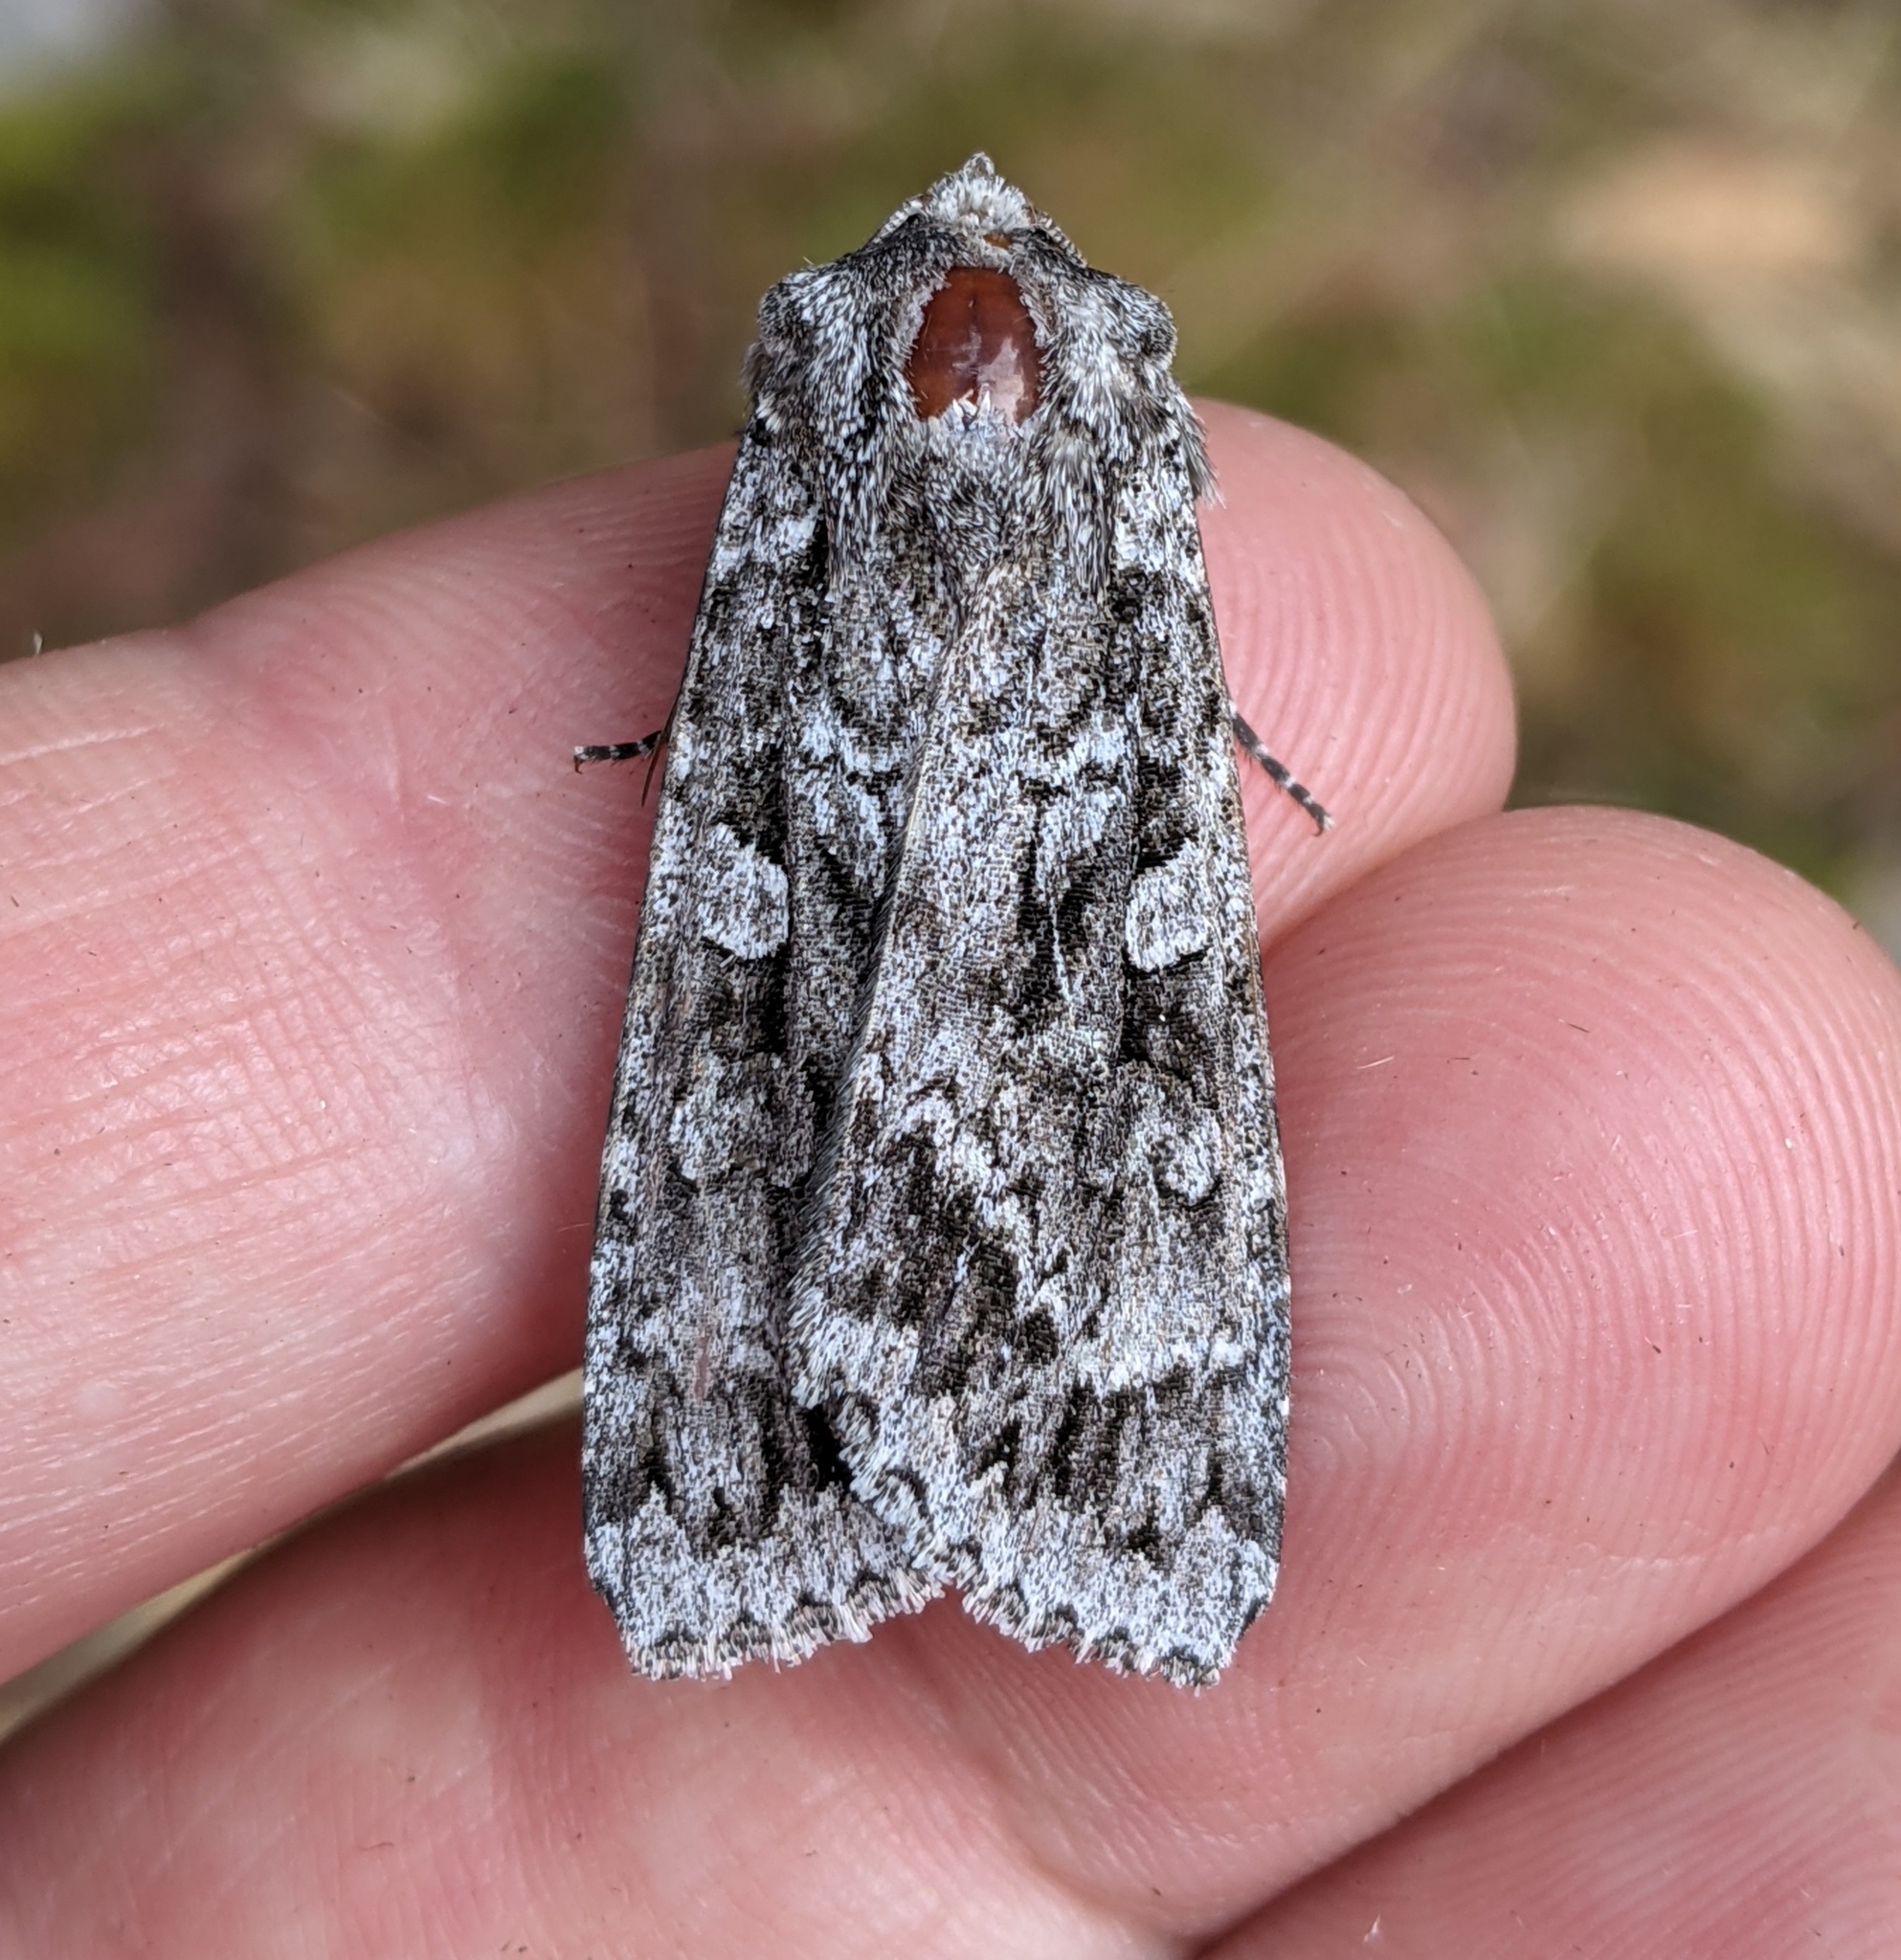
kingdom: Animalia
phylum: Arthropoda
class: Insecta
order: Lepidoptera
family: Noctuidae
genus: Eurois
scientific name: Eurois occulta
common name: Great brocade
